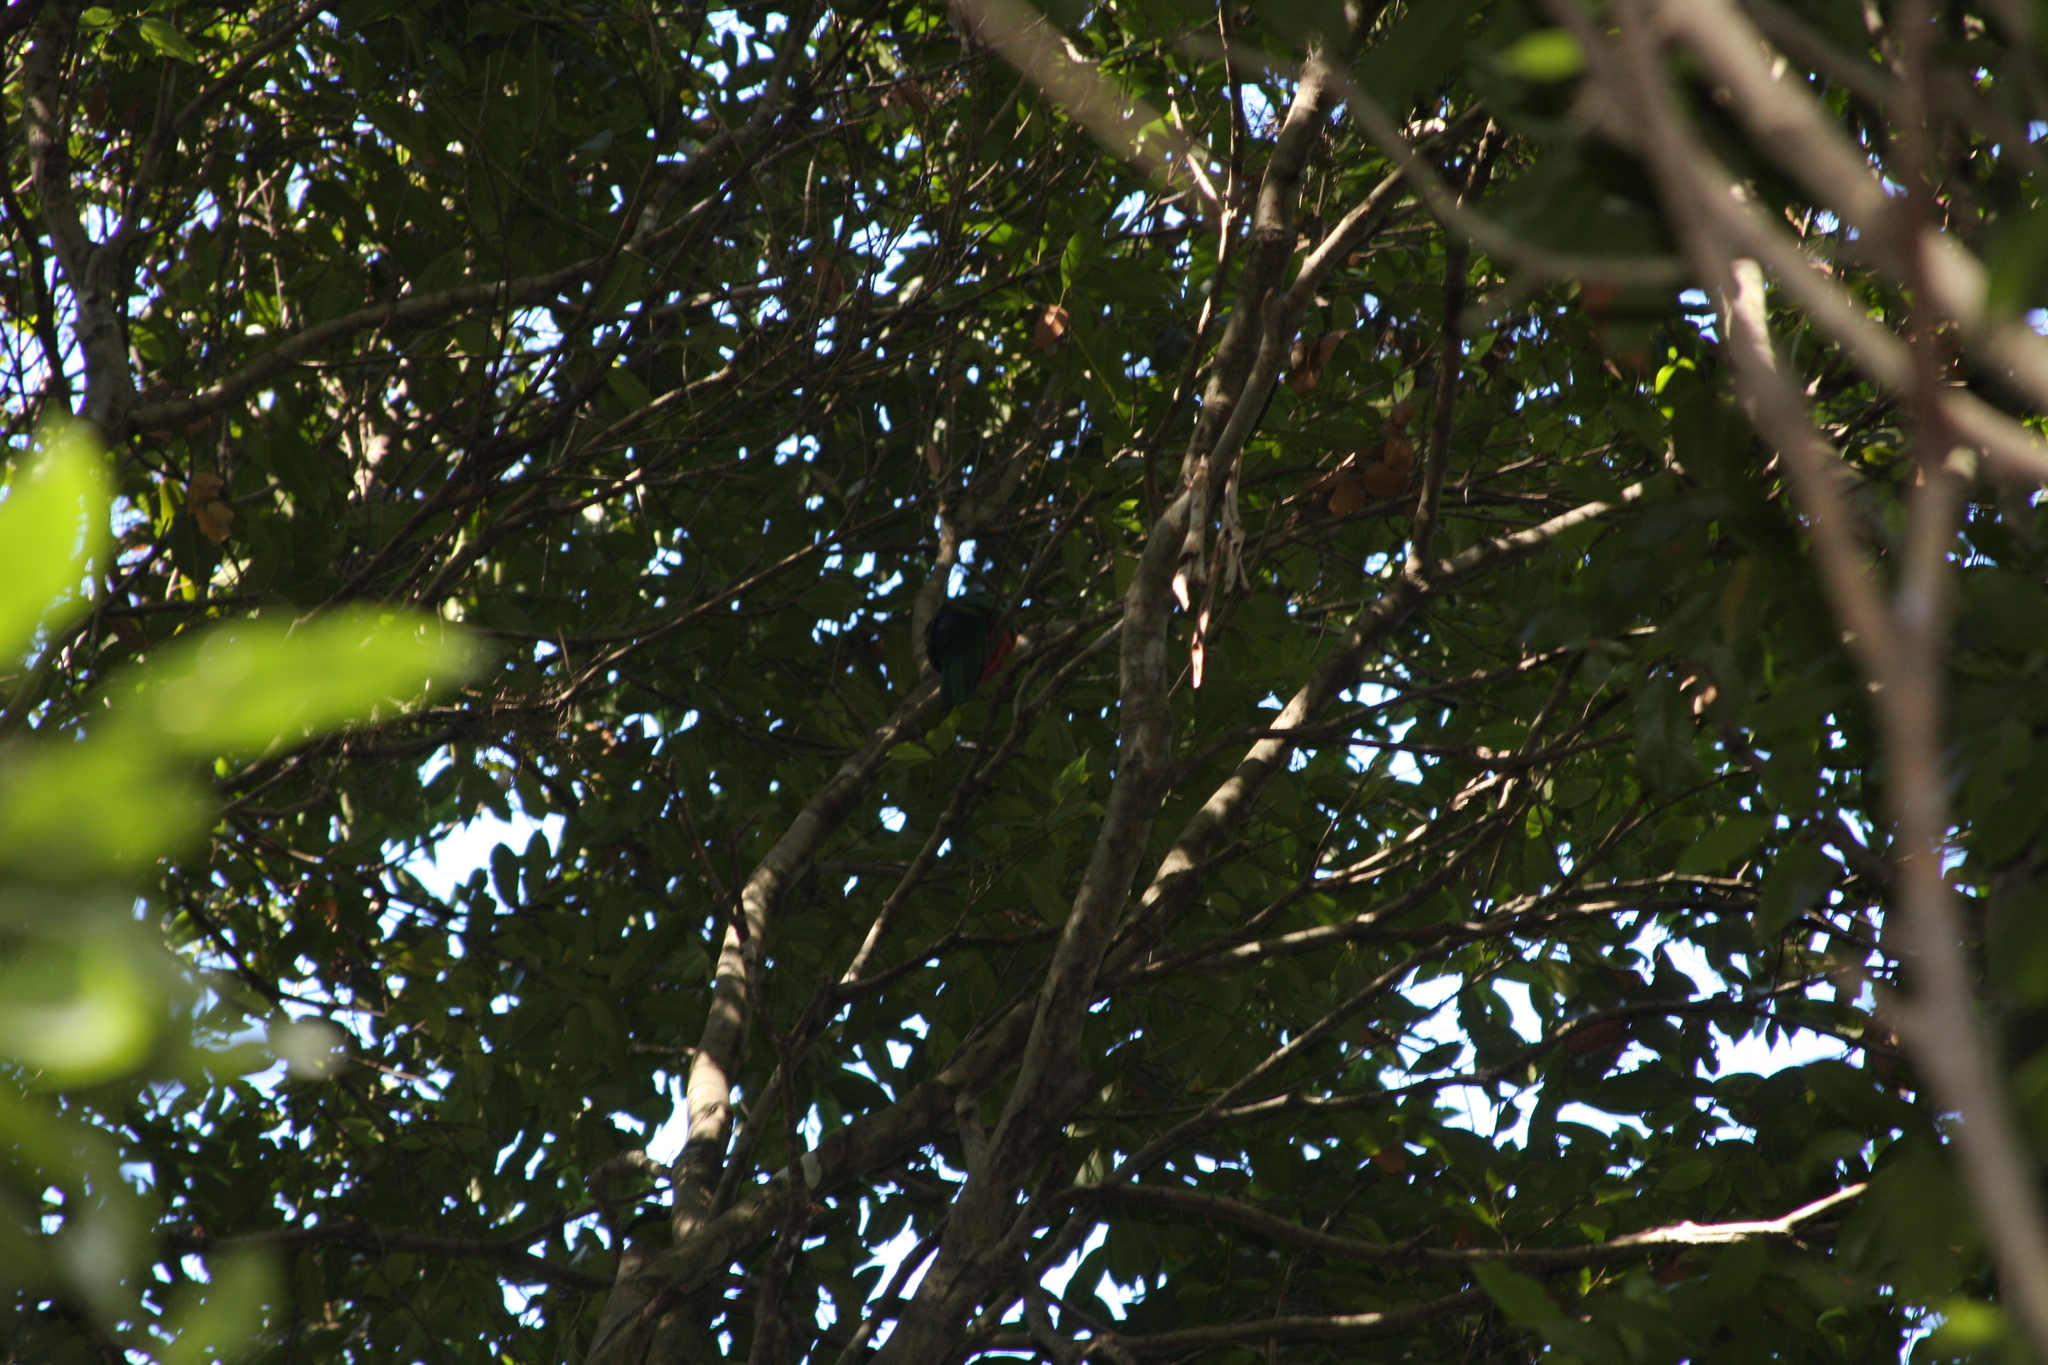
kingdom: Animalia
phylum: Chordata
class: Aves
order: Psittaciformes
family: Psittacidae
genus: Alisterus
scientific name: Alisterus scapularis
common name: Australian king parrot
